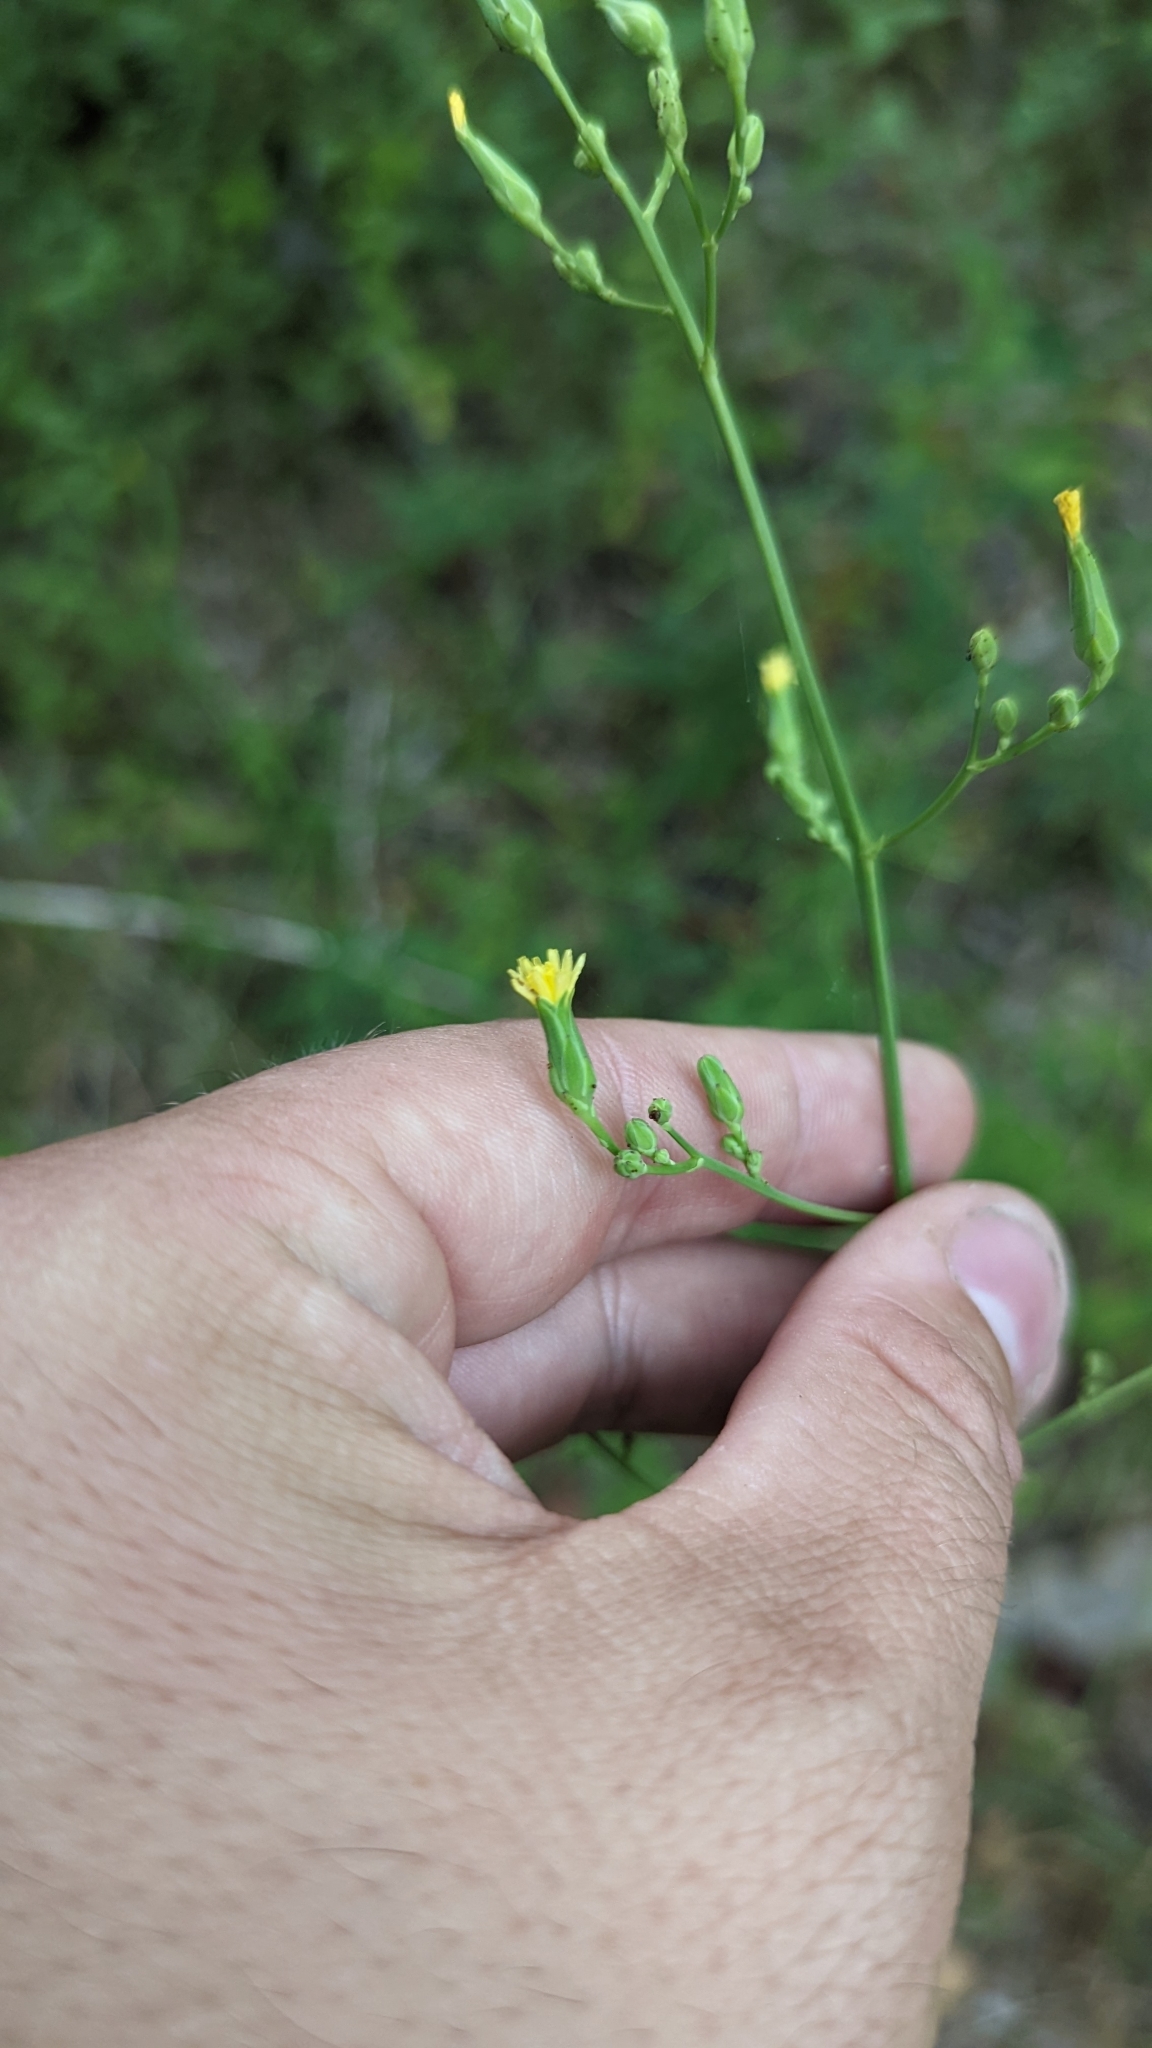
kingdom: Plantae
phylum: Tracheophyta
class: Magnoliopsida
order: Asterales
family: Asteraceae
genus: Lactuca
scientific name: Lactuca canadensis
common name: Canada lettuce
